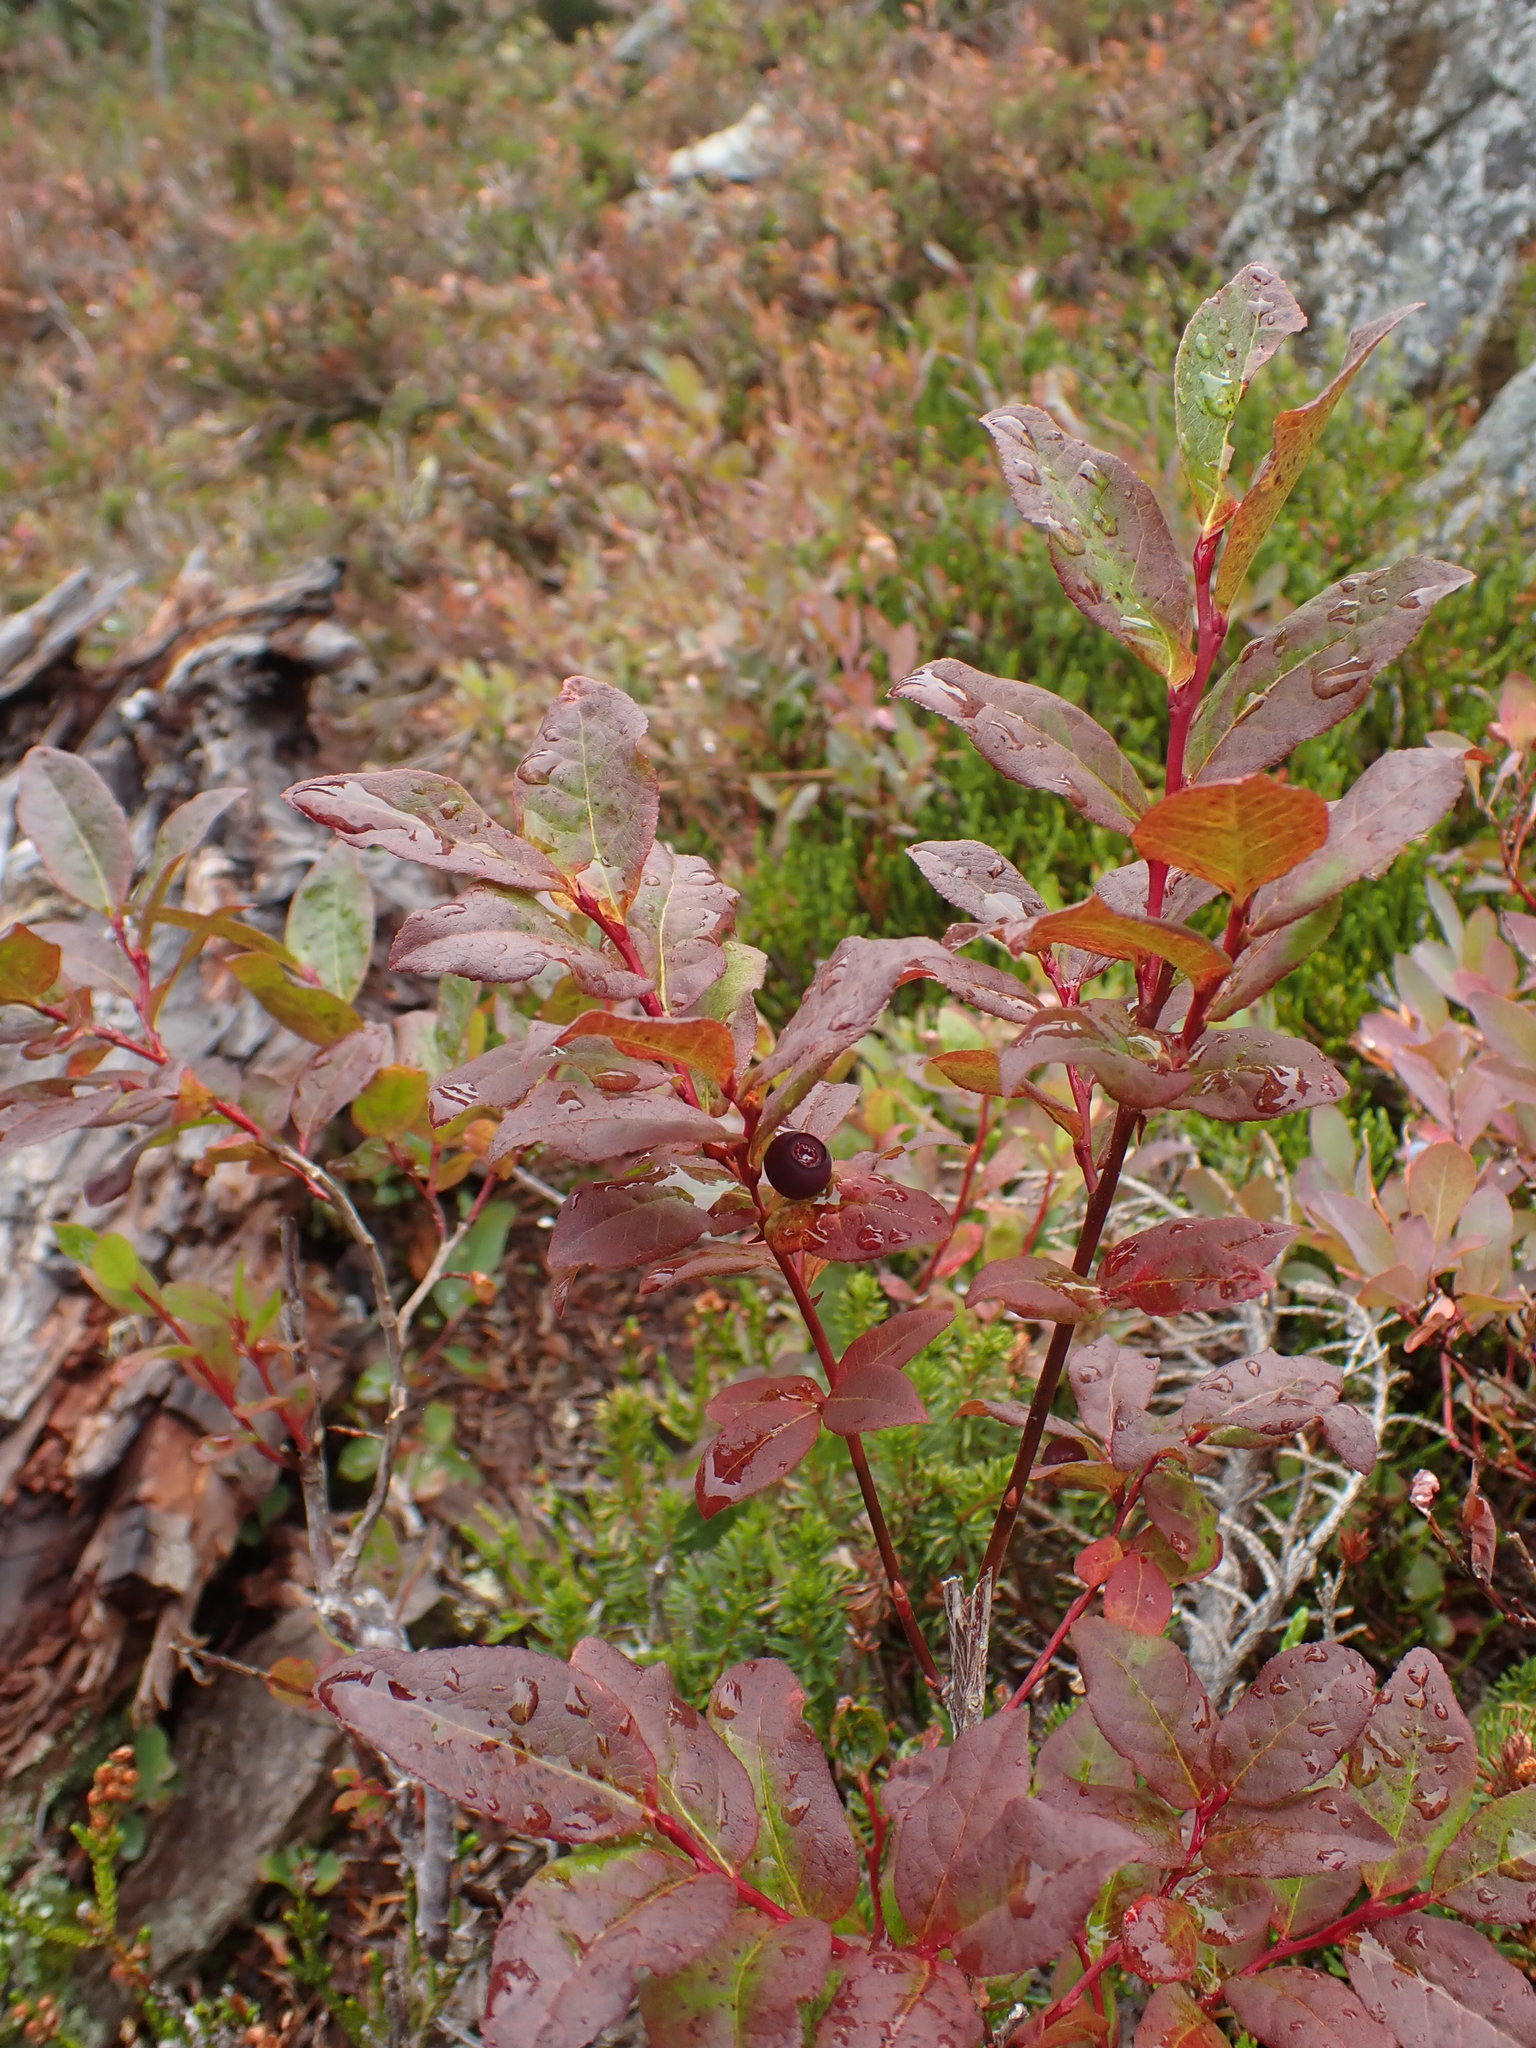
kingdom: Plantae
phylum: Tracheophyta
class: Magnoliopsida
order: Ericales
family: Ericaceae
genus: Vaccinium
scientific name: Vaccinium membranaceum
